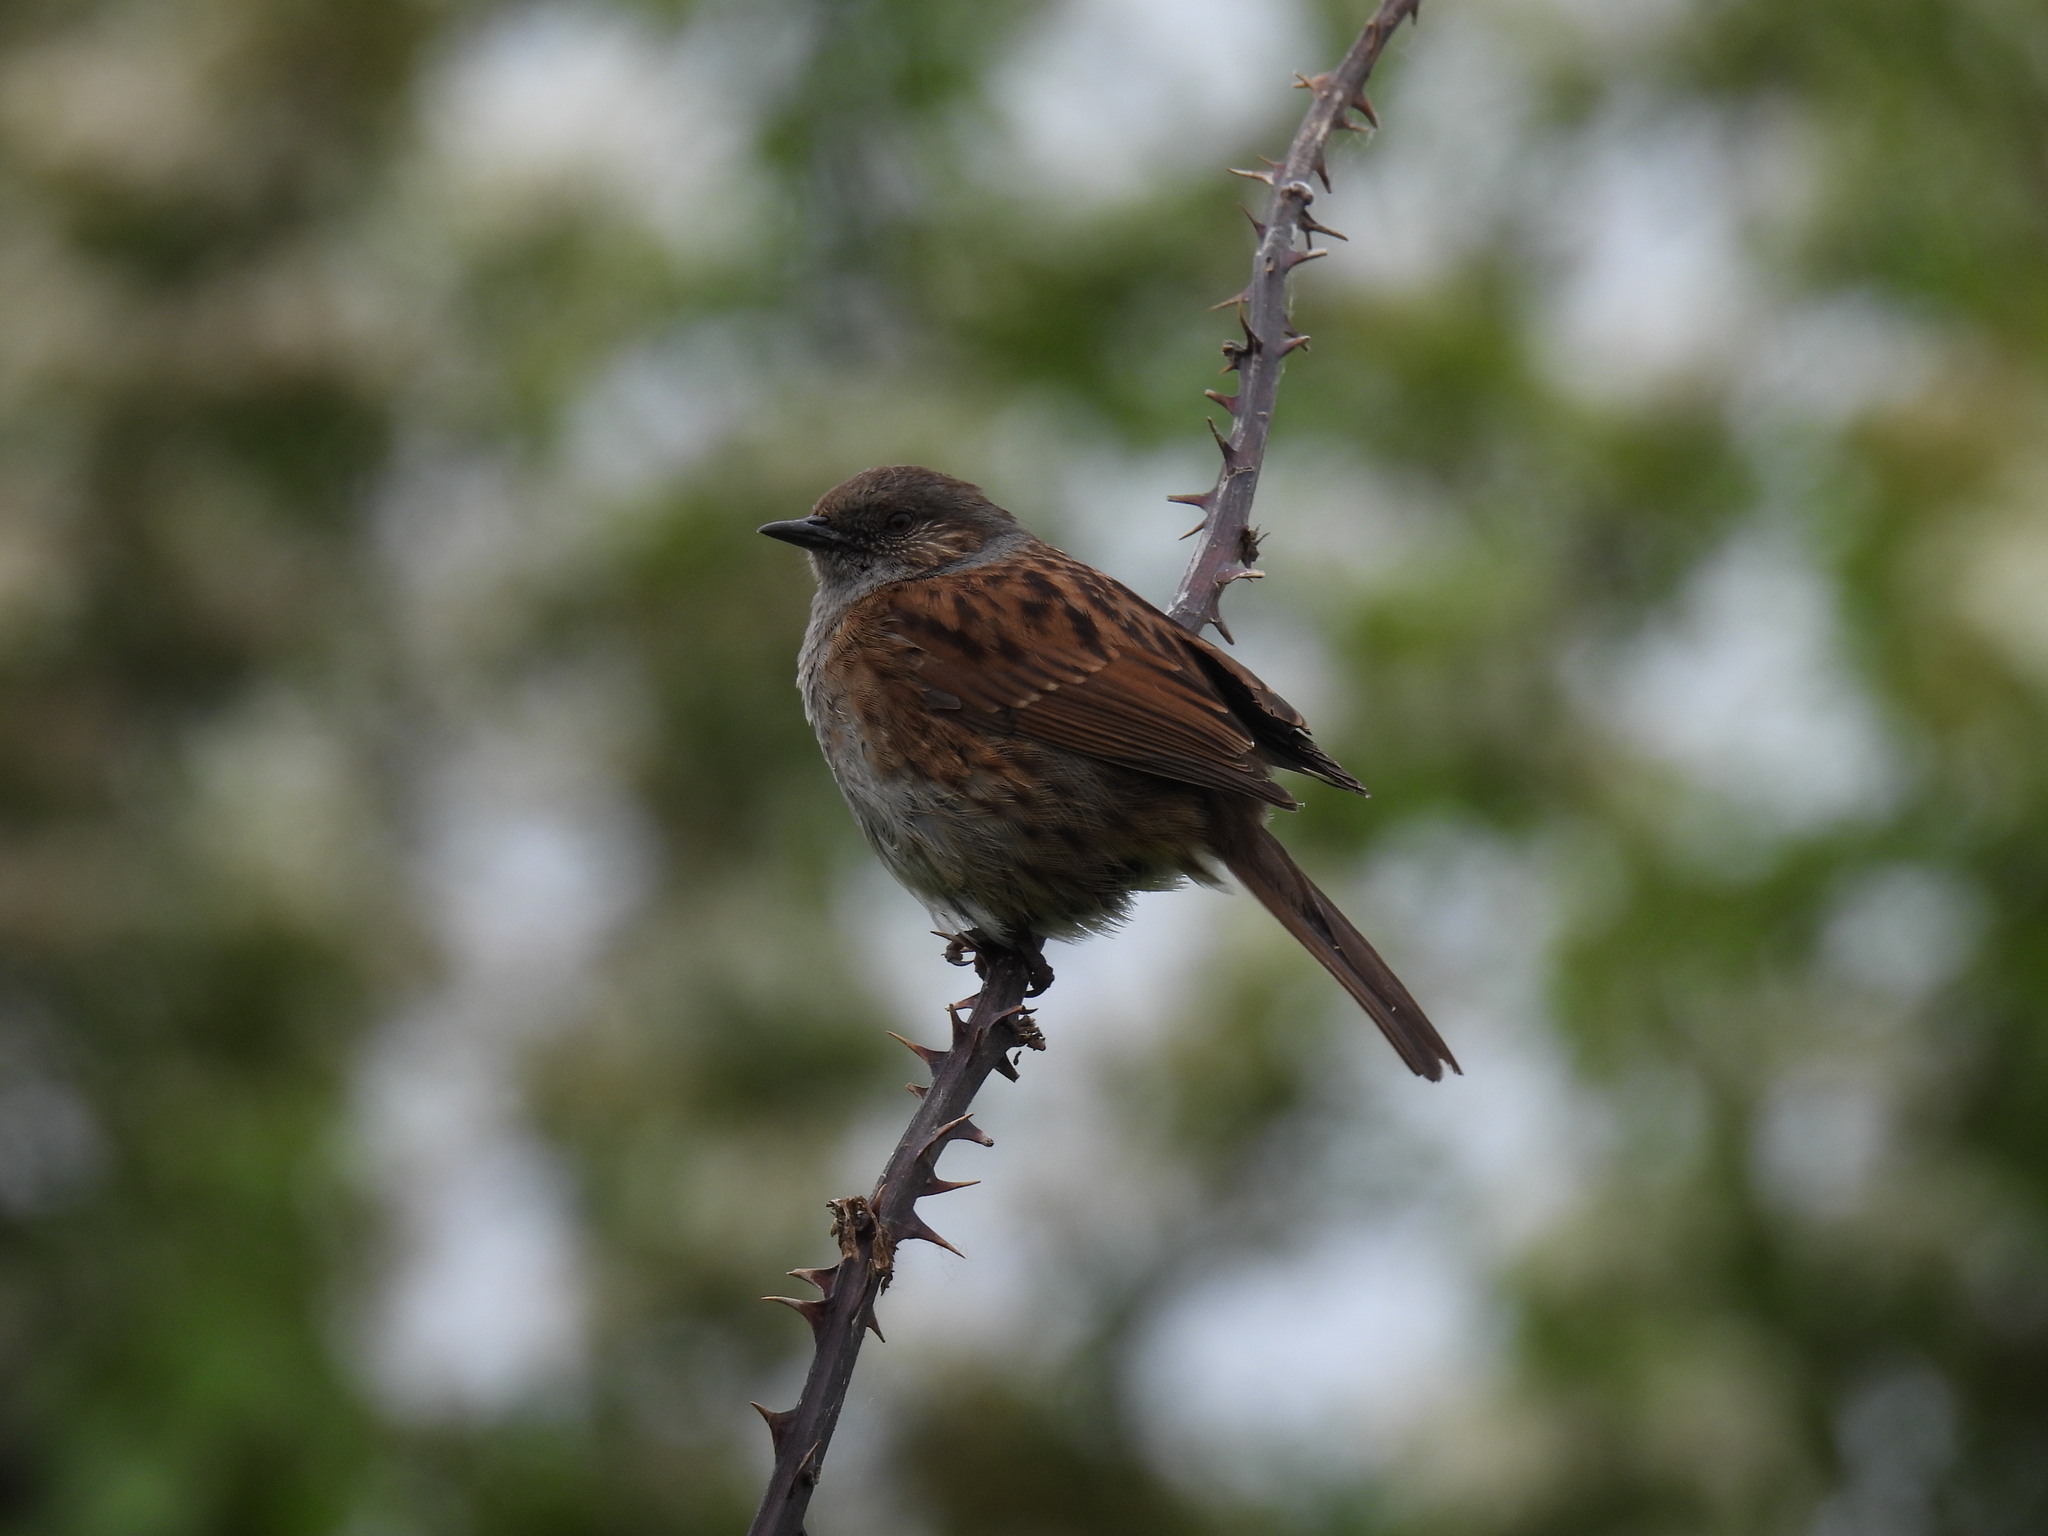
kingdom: Animalia
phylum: Chordata
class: Aves
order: Passeriformes
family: Prunellidae
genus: Prunella
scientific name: Prunella modularis
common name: Dunnock
